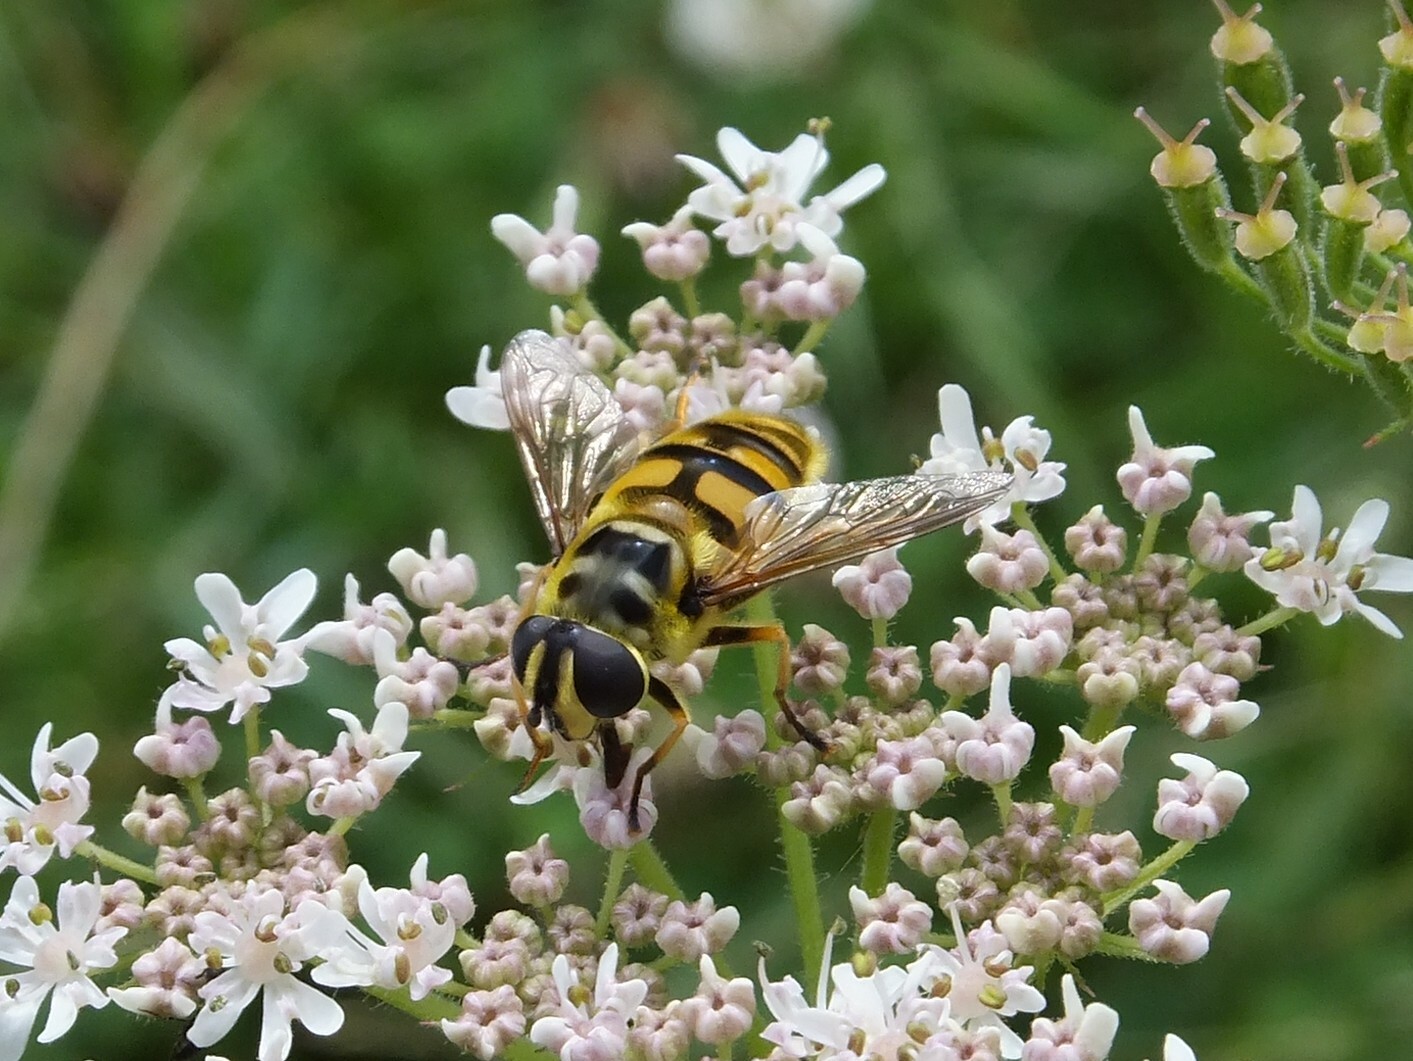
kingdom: Animalia
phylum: Arthropoda
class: Insecta
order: Diptera
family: Syrphidae
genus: Myathropa
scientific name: Myathropa florea
